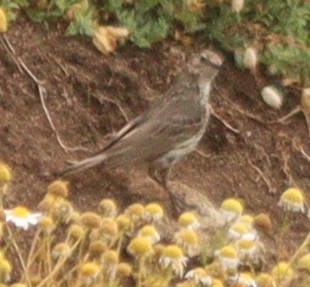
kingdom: Animalia
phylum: Chordata
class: Aves
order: Passeriformes
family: Motacillidae
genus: Anthus
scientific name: Anthus petrosus
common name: Eurasian rock pipit
